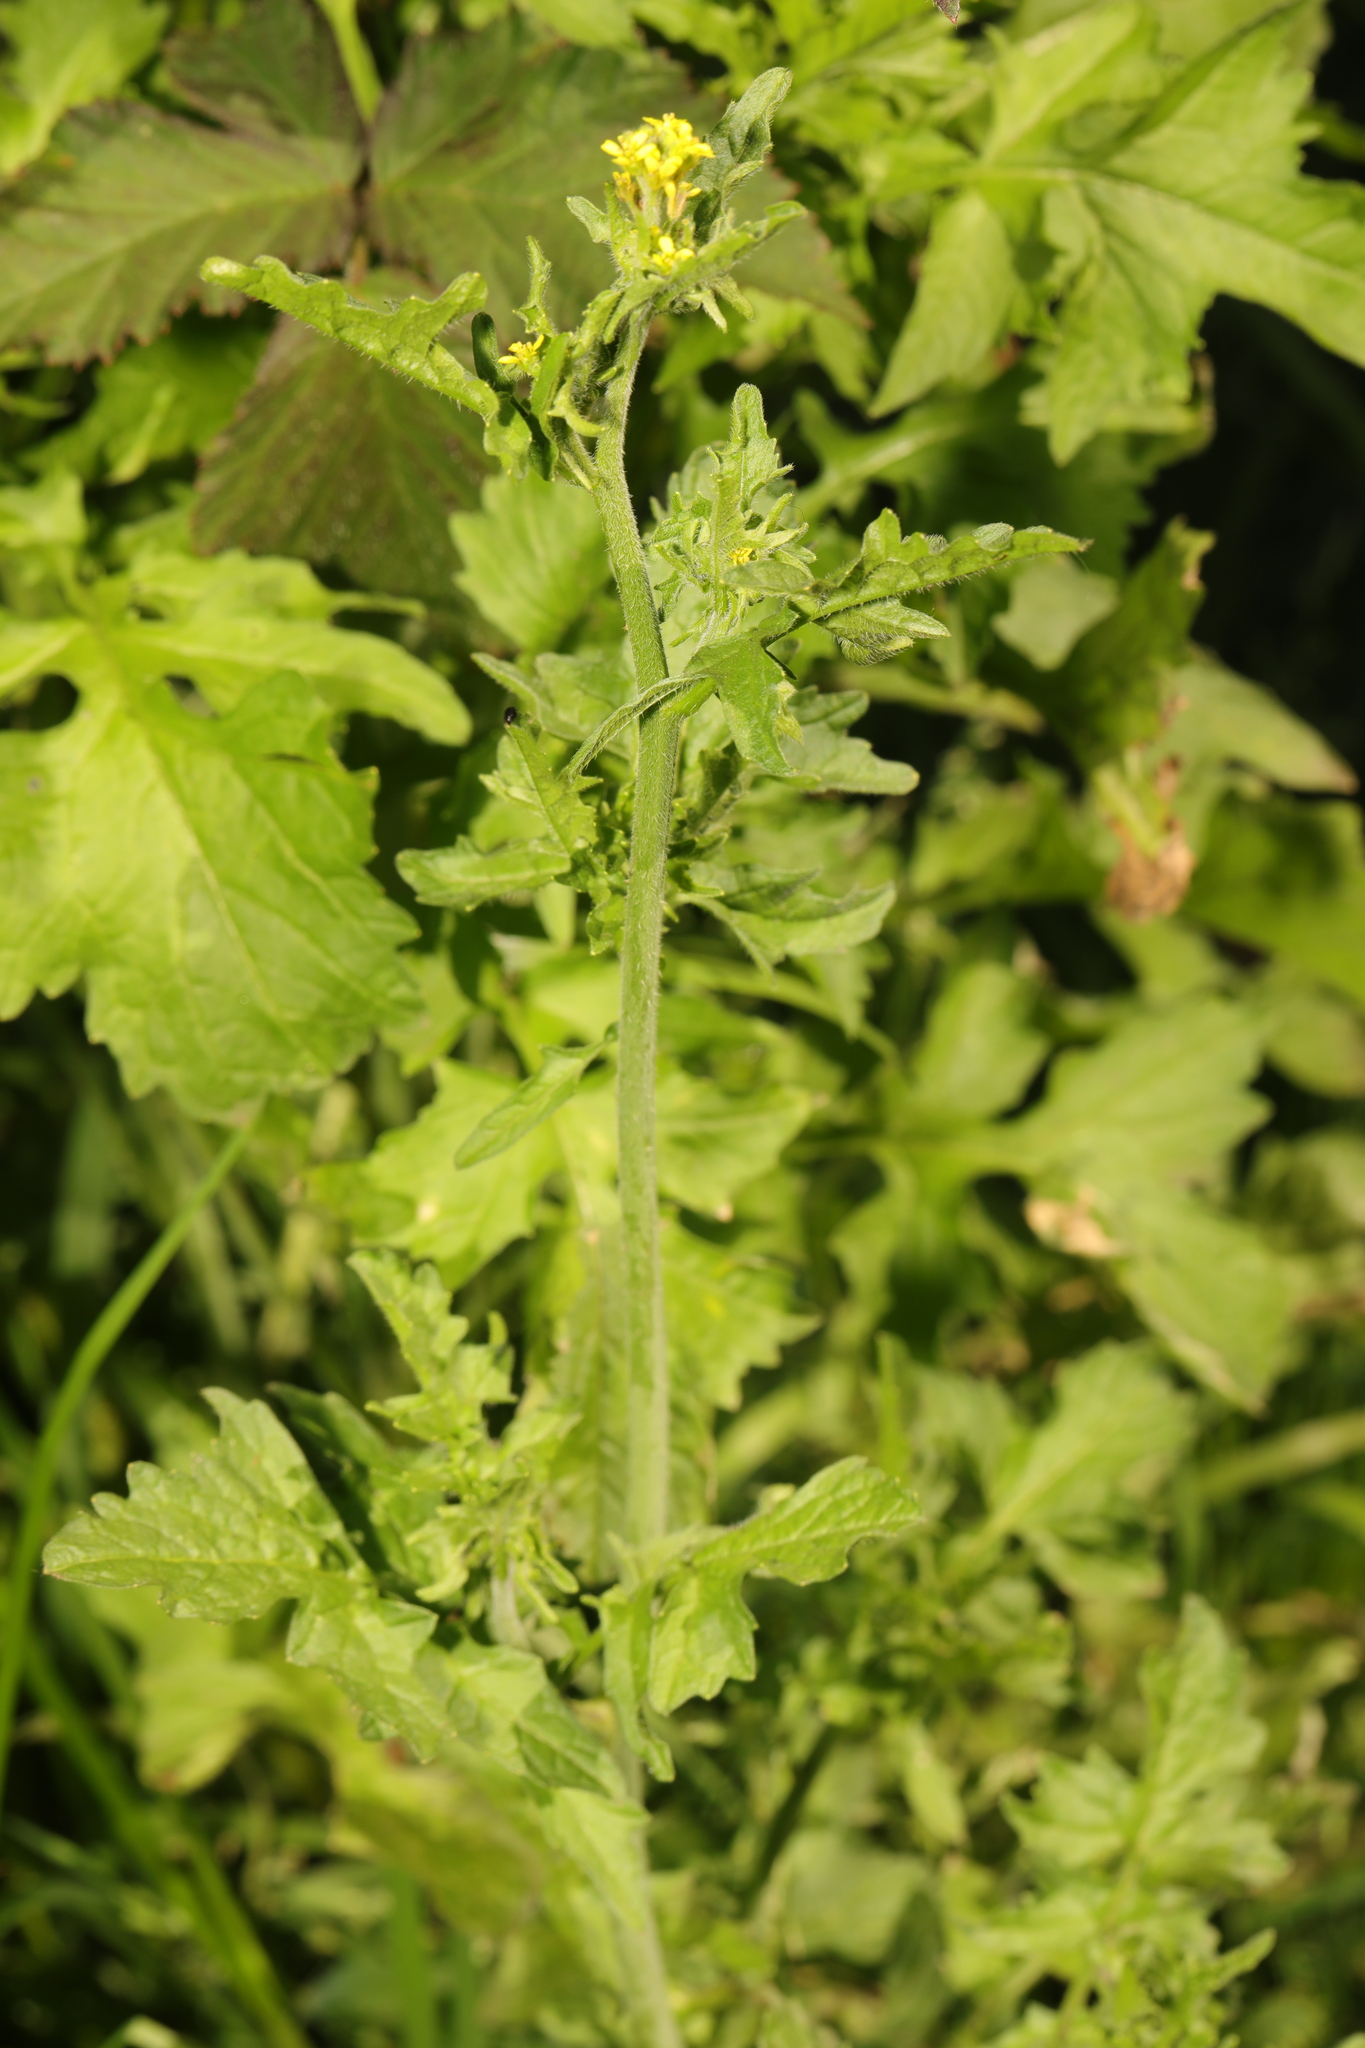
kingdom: Plantae
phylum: Tracheophyta
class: Magnoliopsida
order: Brassicales
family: Brassicaceae
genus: Sisymbrium
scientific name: Sisymbrium officinale
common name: Hedge mustard
